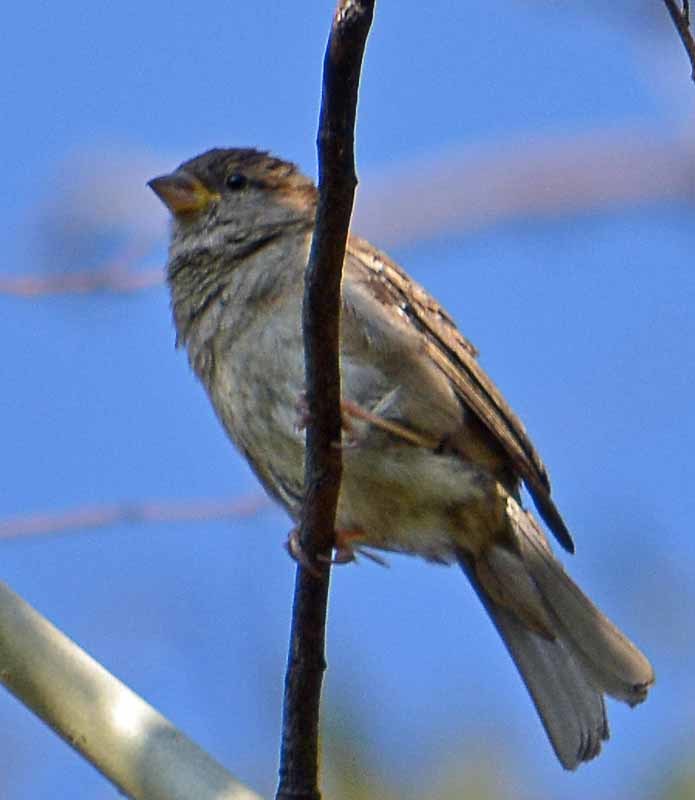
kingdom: Animalia
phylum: Chordata
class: Aves
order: Passeriformes
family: Passeridae
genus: Passer
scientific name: Passer domesticus
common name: House sparrow
